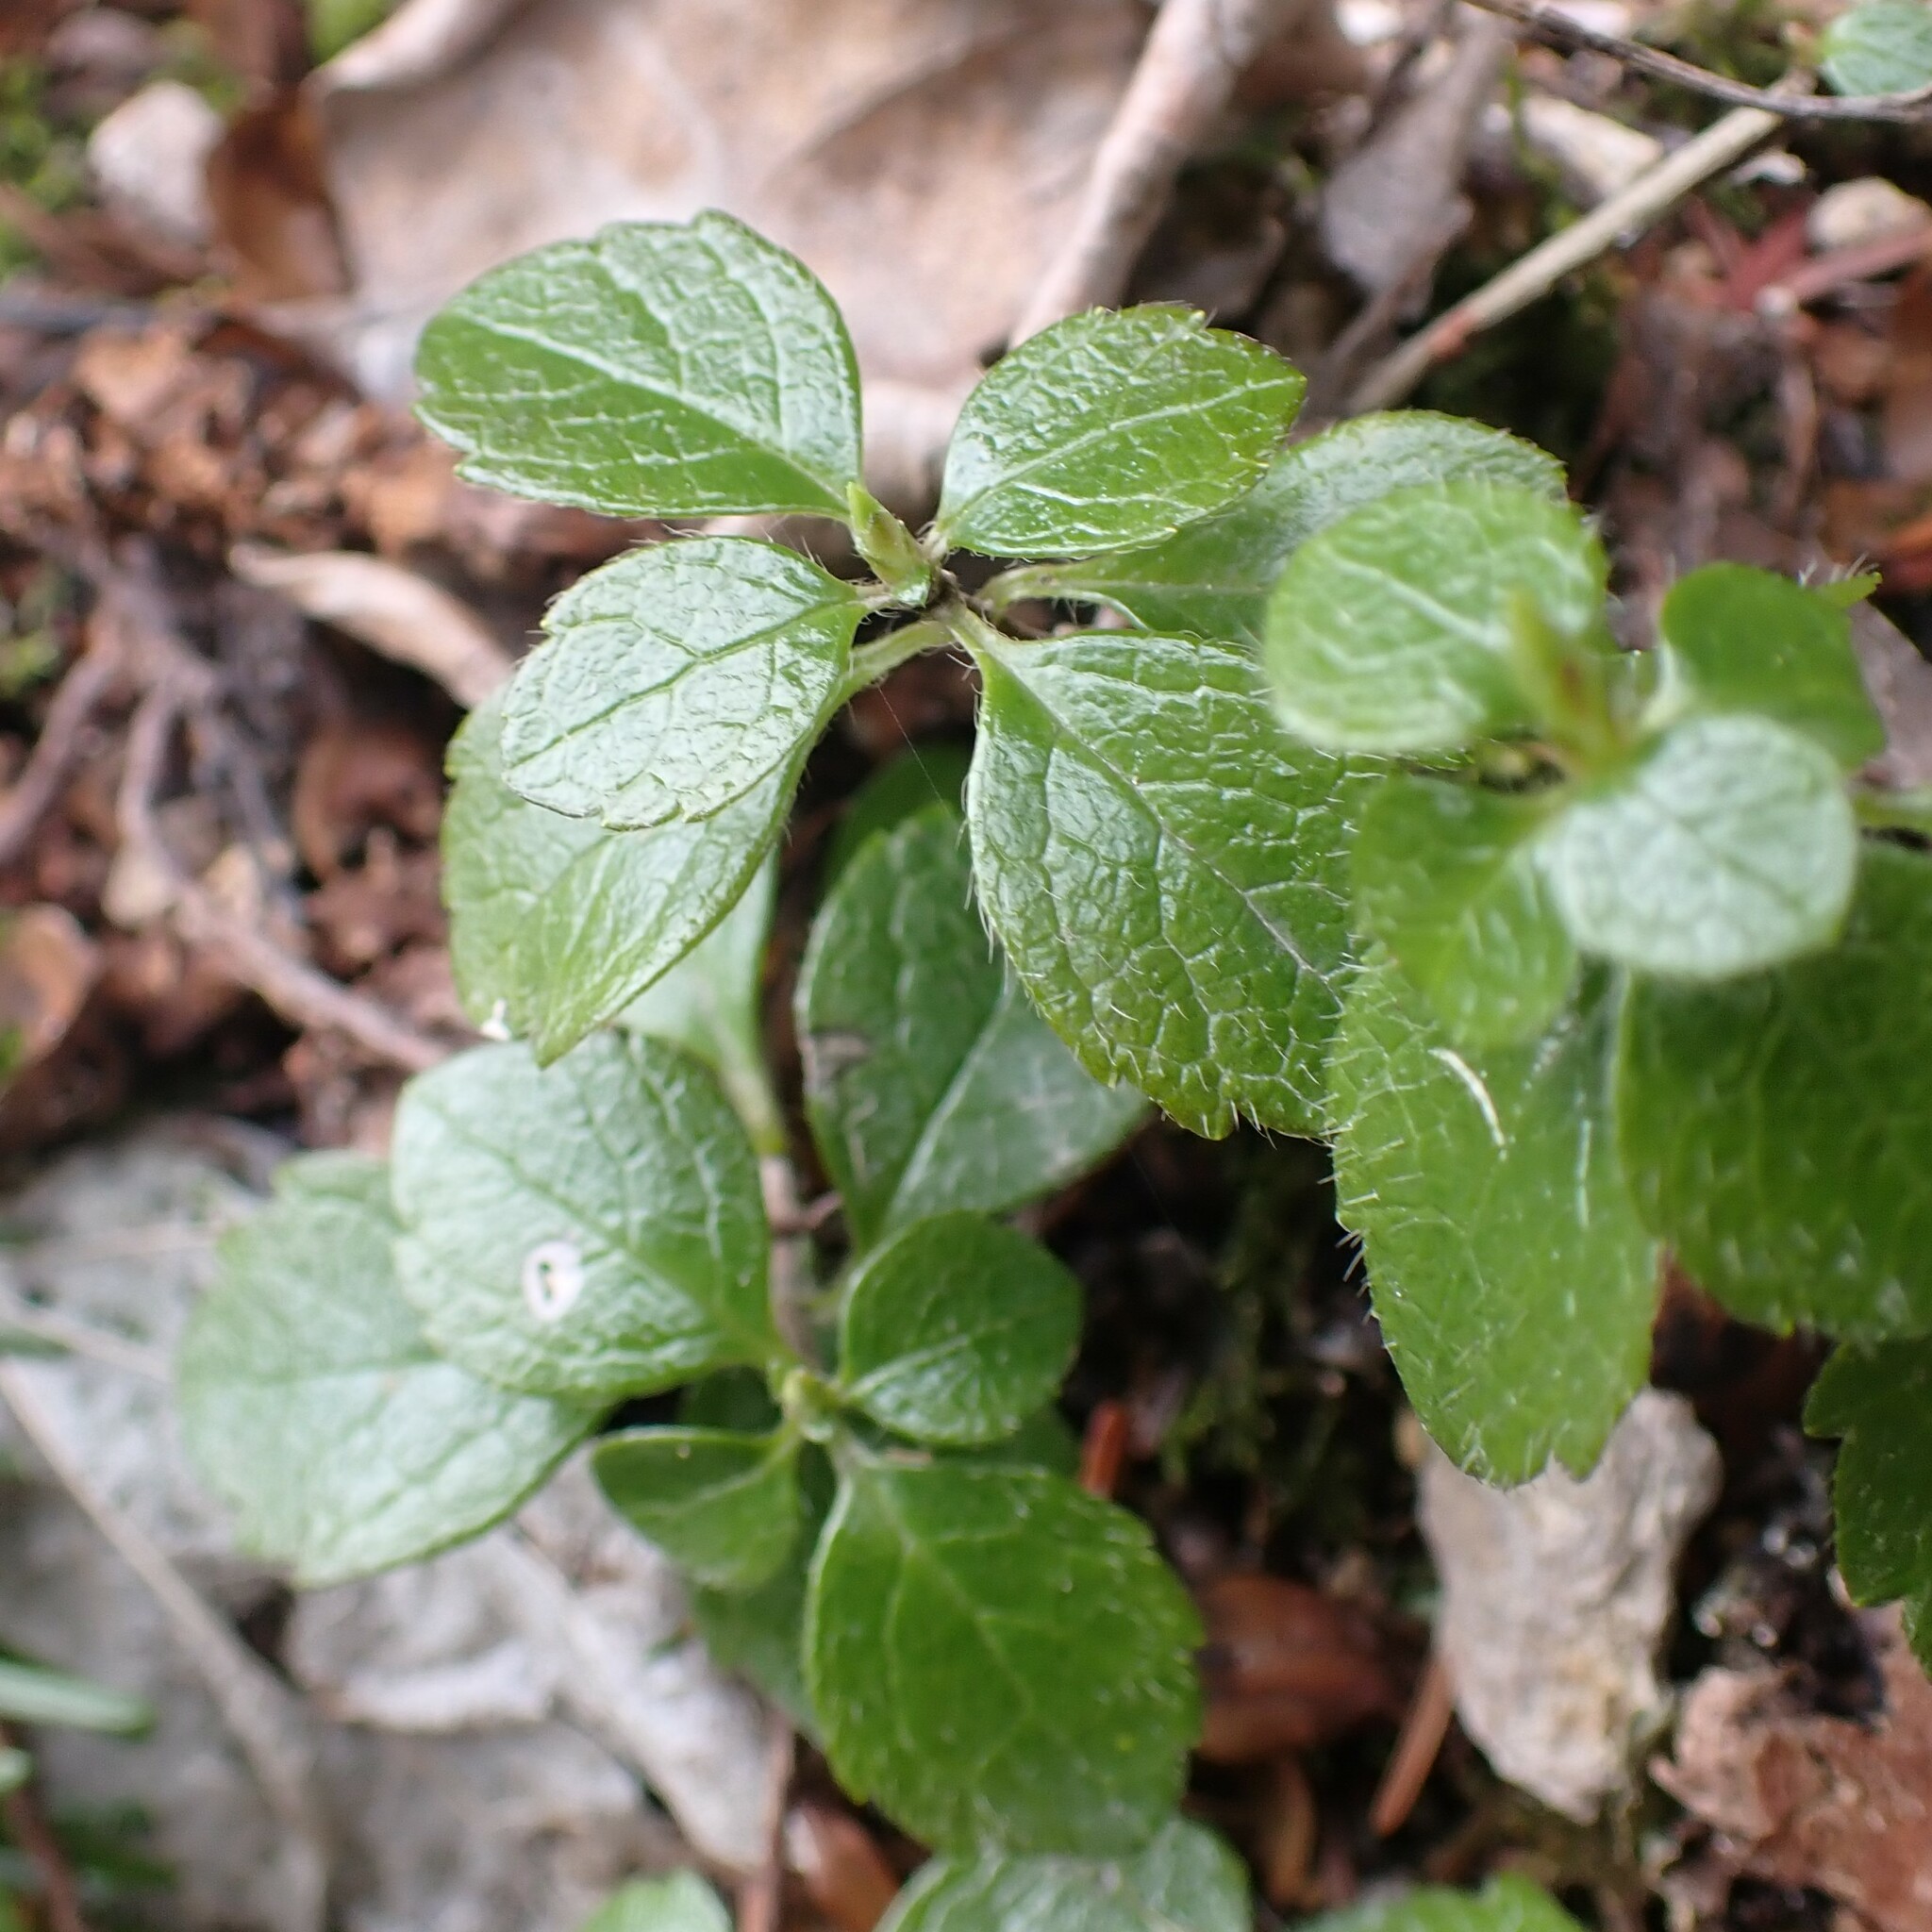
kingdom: Plantae
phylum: Tracheophyta
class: Magnoliopsida
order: Dipsacales
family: Caprifoliaceae
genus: Linnaea
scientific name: Linnaea borealis
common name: Twinflower
